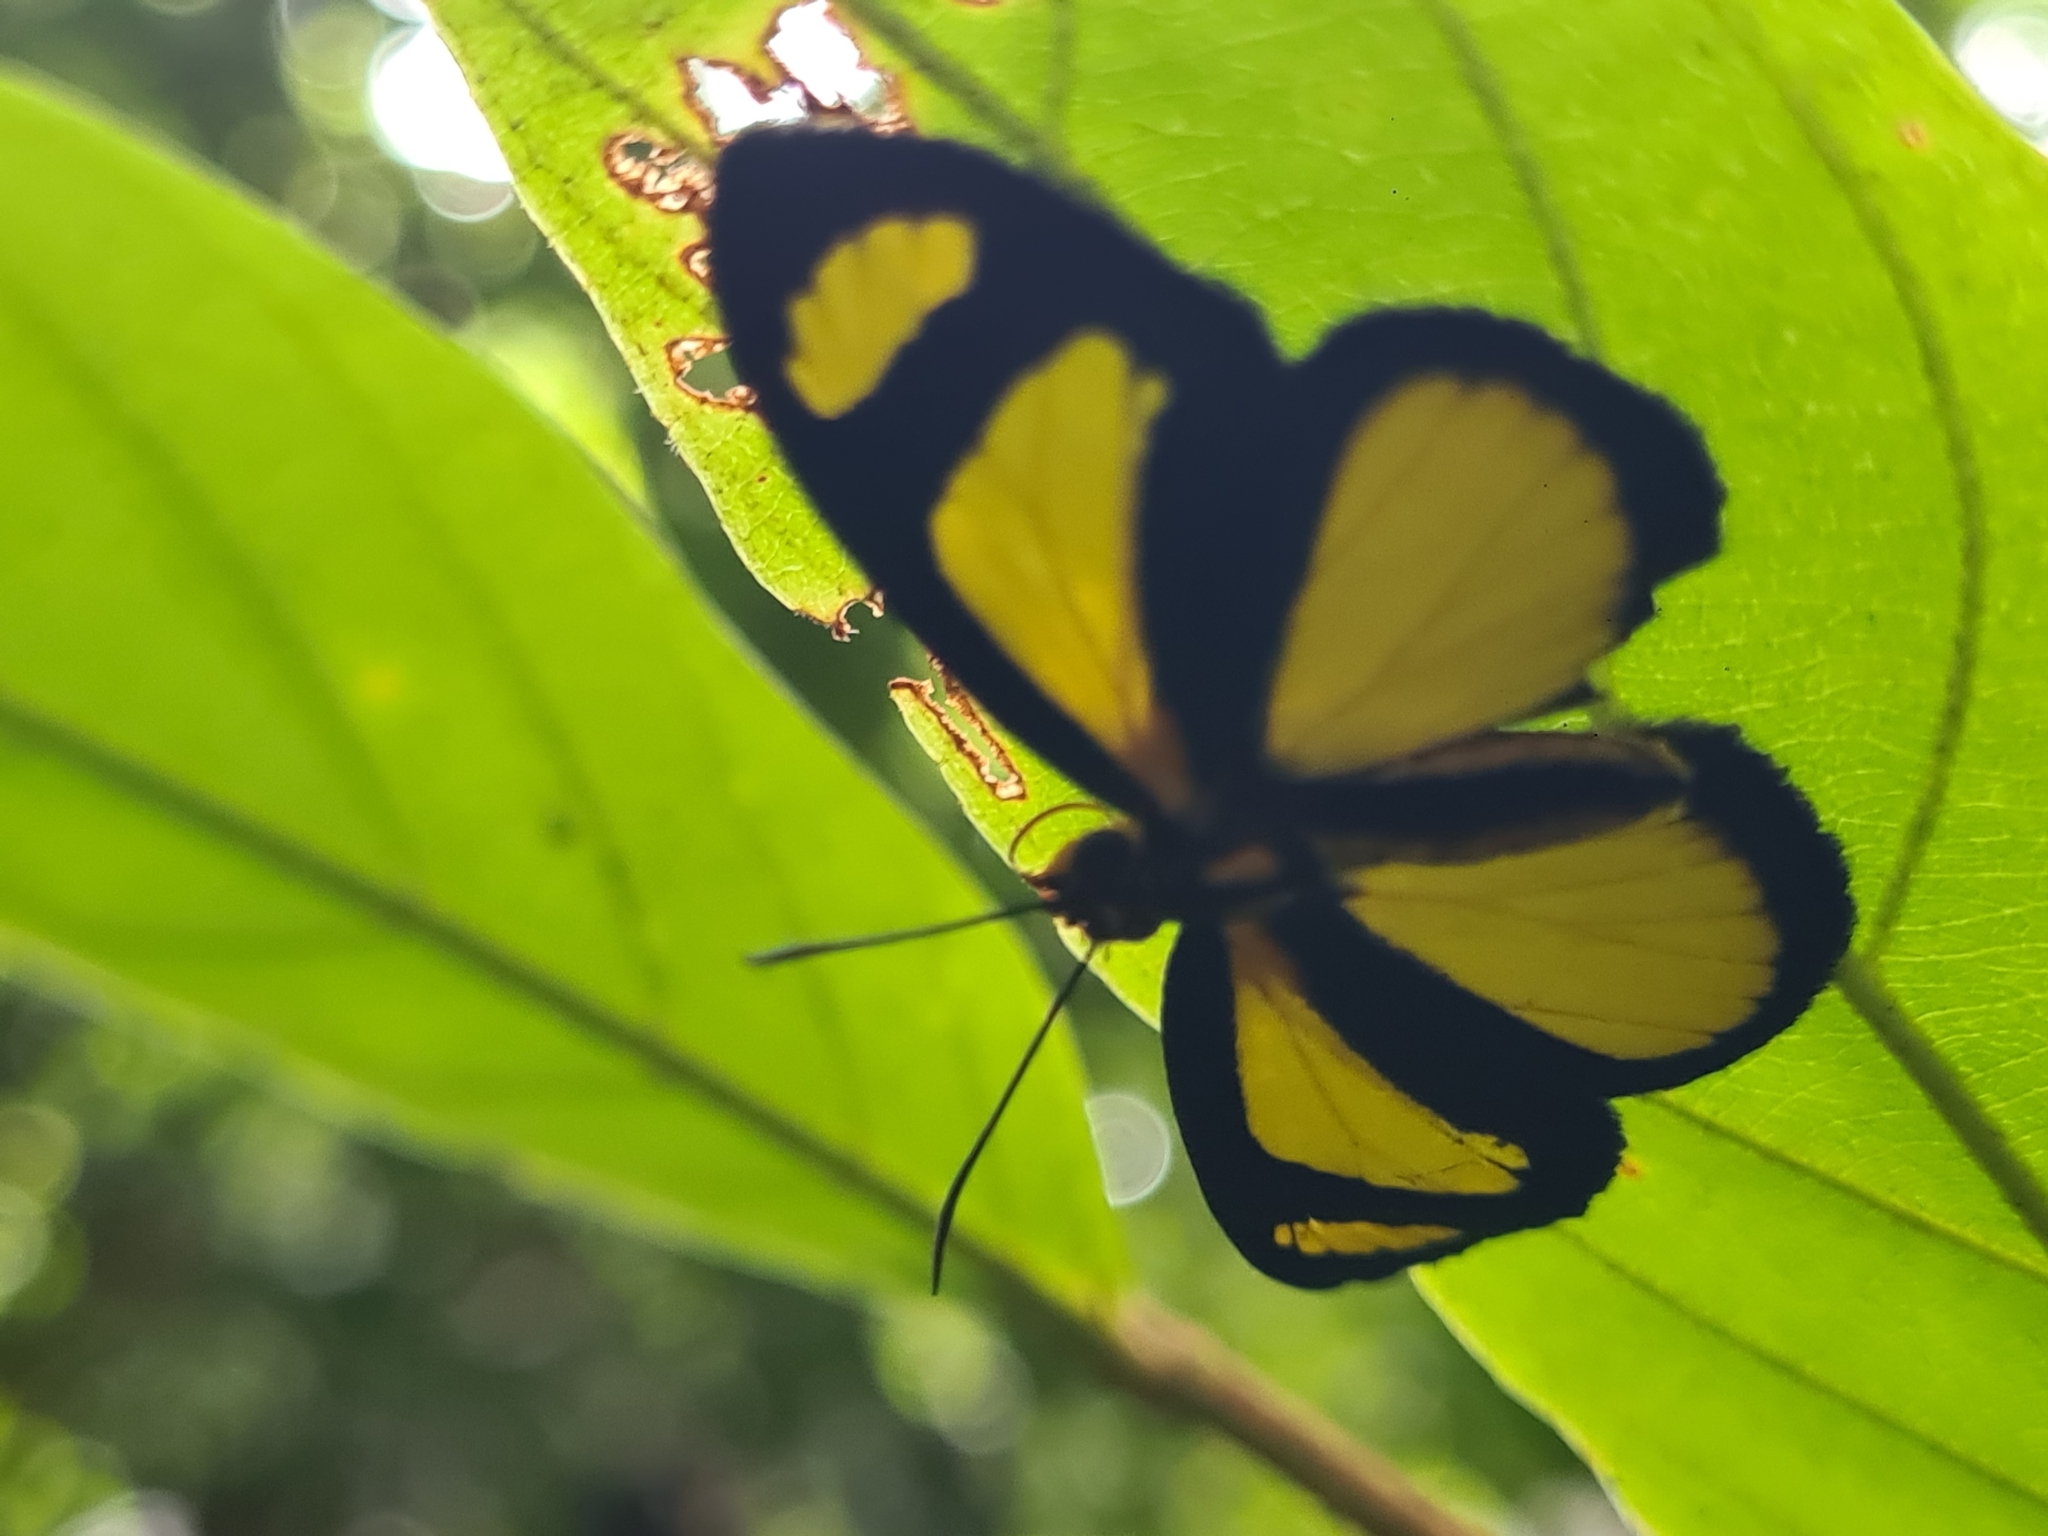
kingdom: Animalia
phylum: Arthropoda
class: Insecta
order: Lepidoptera
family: Hesperiidae
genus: Cabirus
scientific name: Cabirus procas
